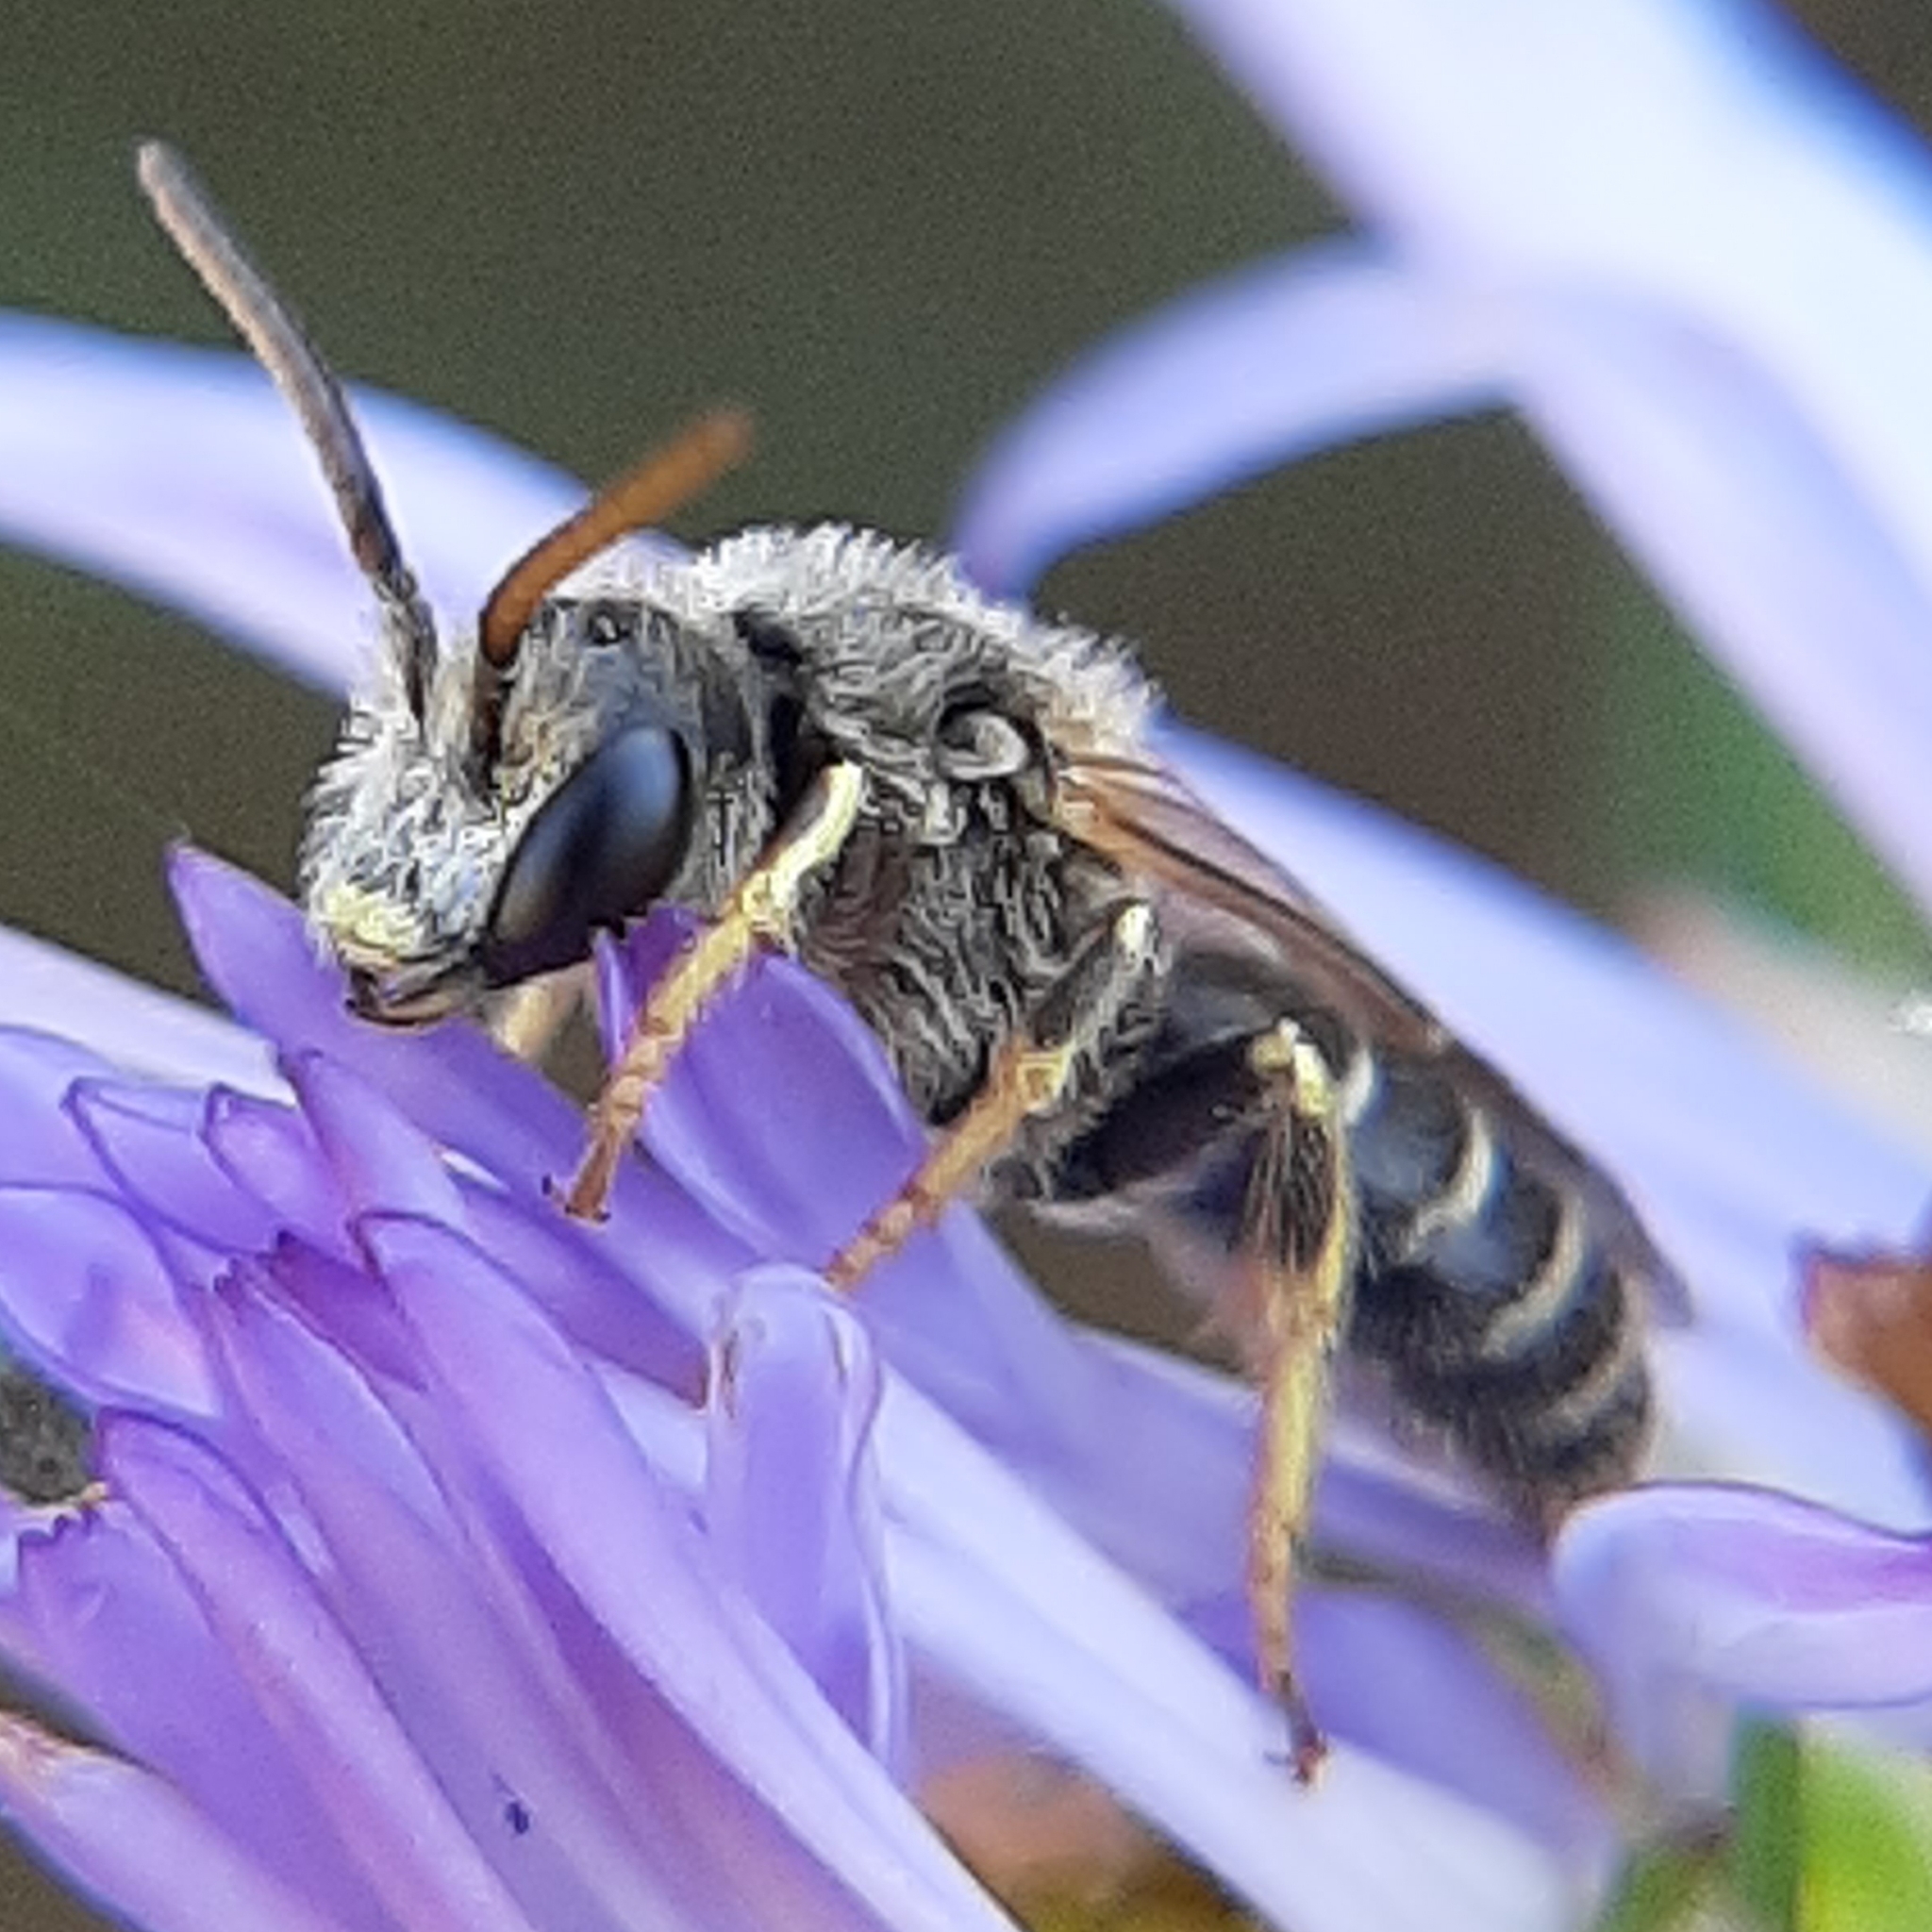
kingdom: Animalia
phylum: Arthropoda
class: Insecta
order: Hymenoptera
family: Halictidae
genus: Halictus
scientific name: Halictus ligatus
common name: Ligated furrow bee
